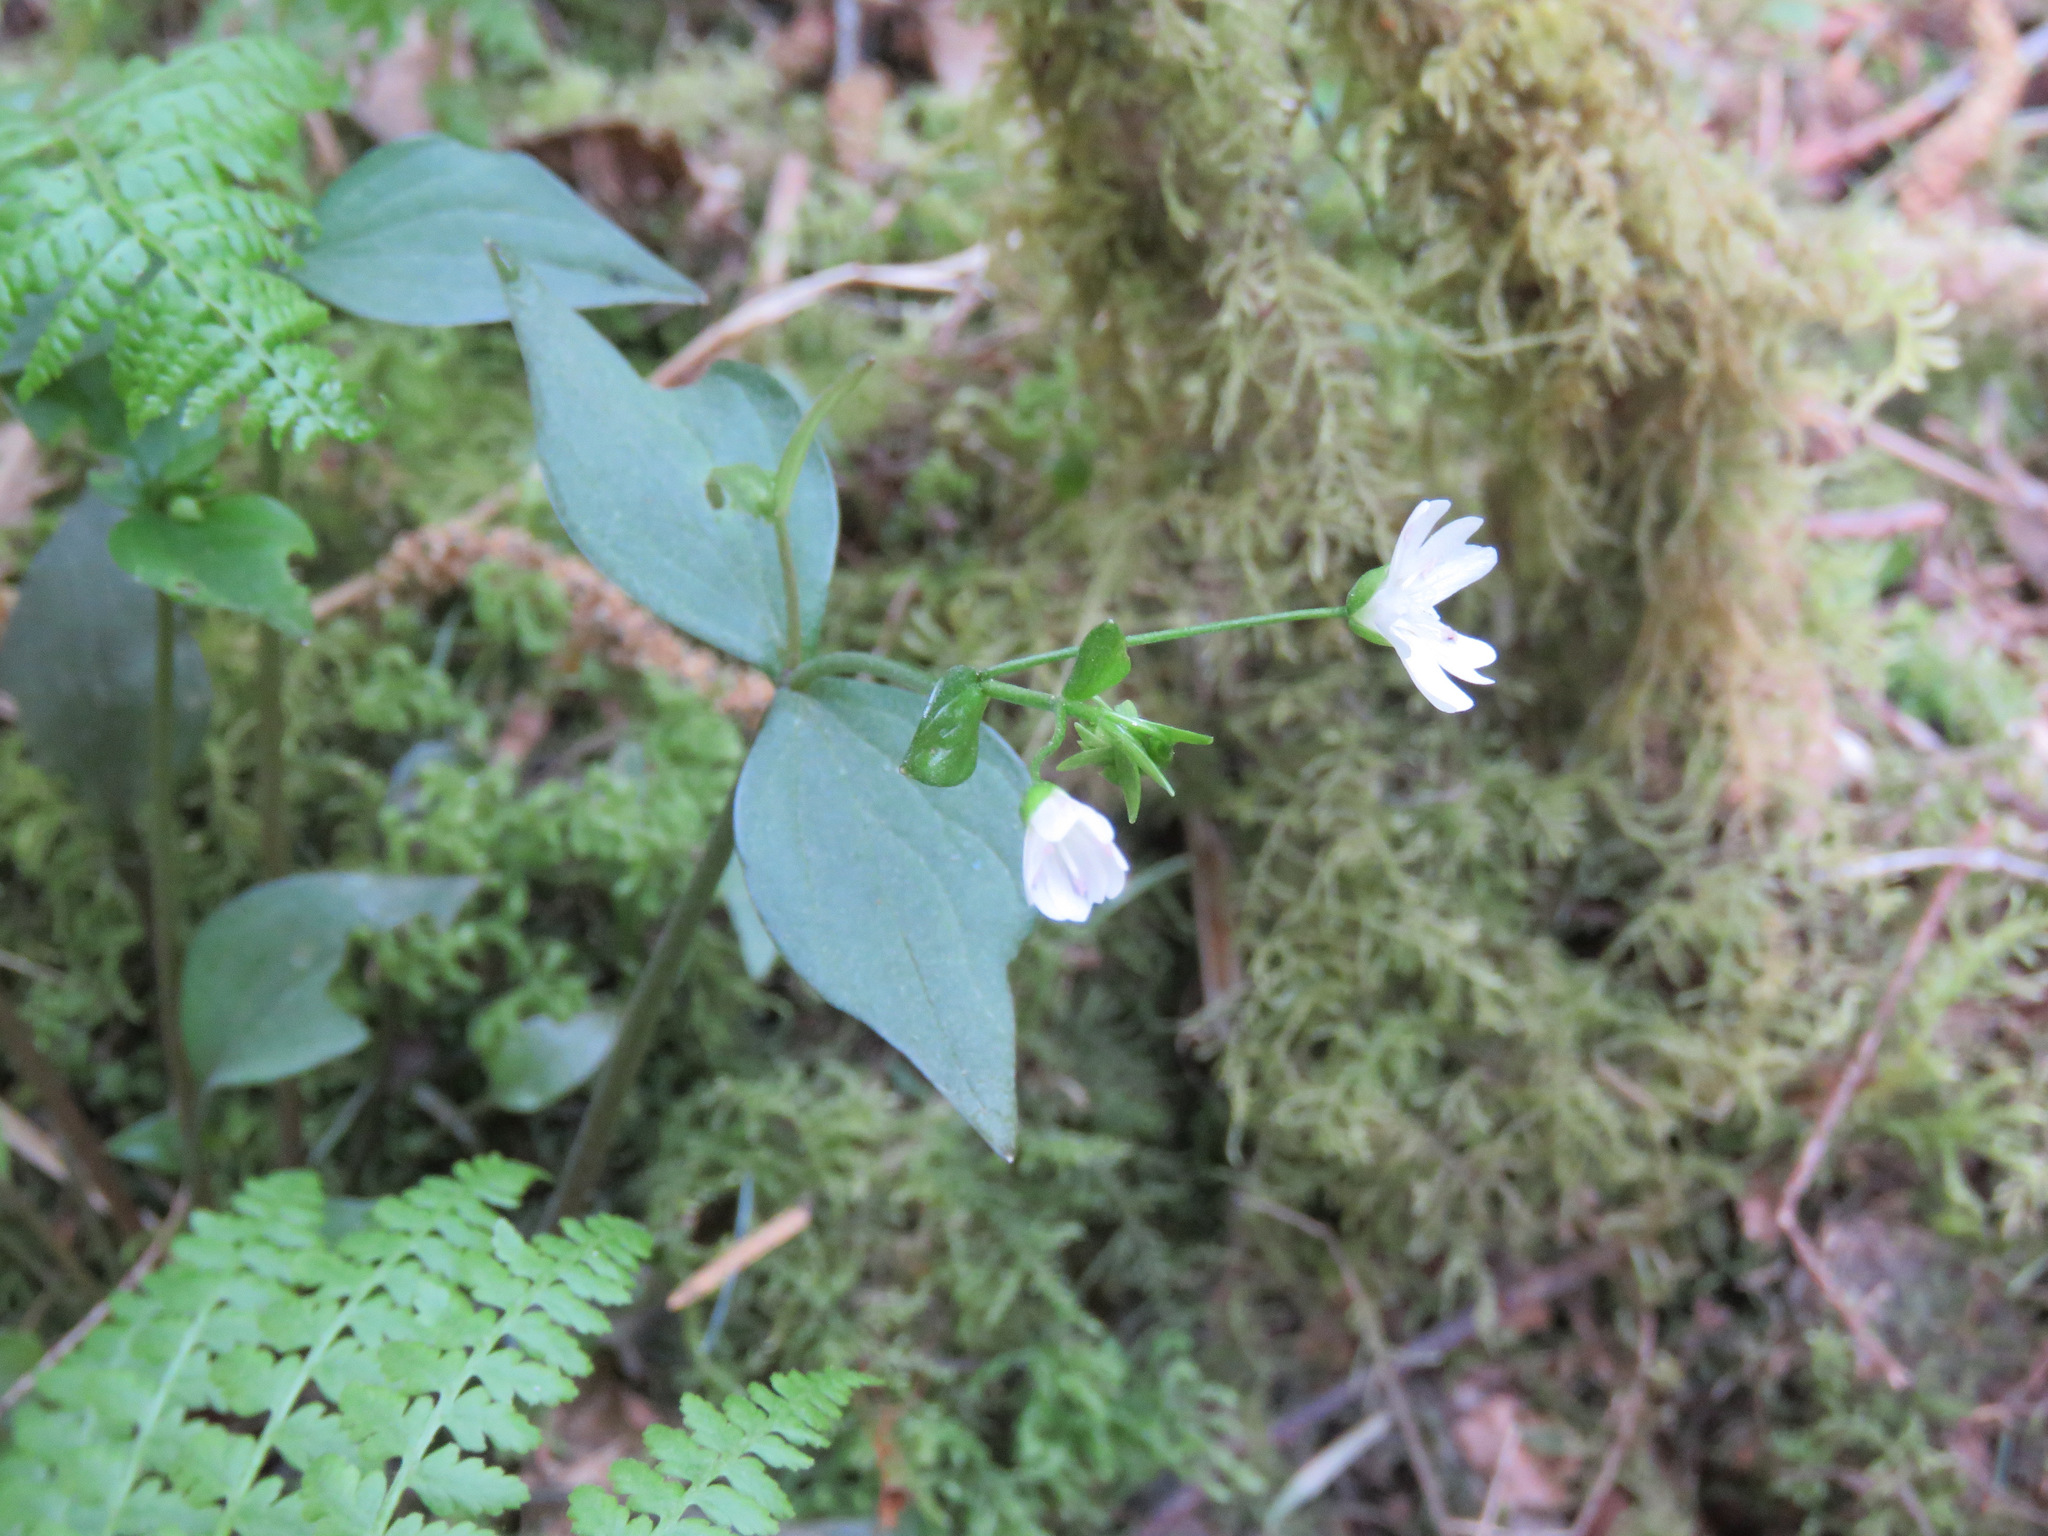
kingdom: Plantae
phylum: Tracheophyta
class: Magnoliopsida
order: Caryophyllales
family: Montiaceae
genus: Claytonia
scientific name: Claytonia sibirica
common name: Pink purslane
